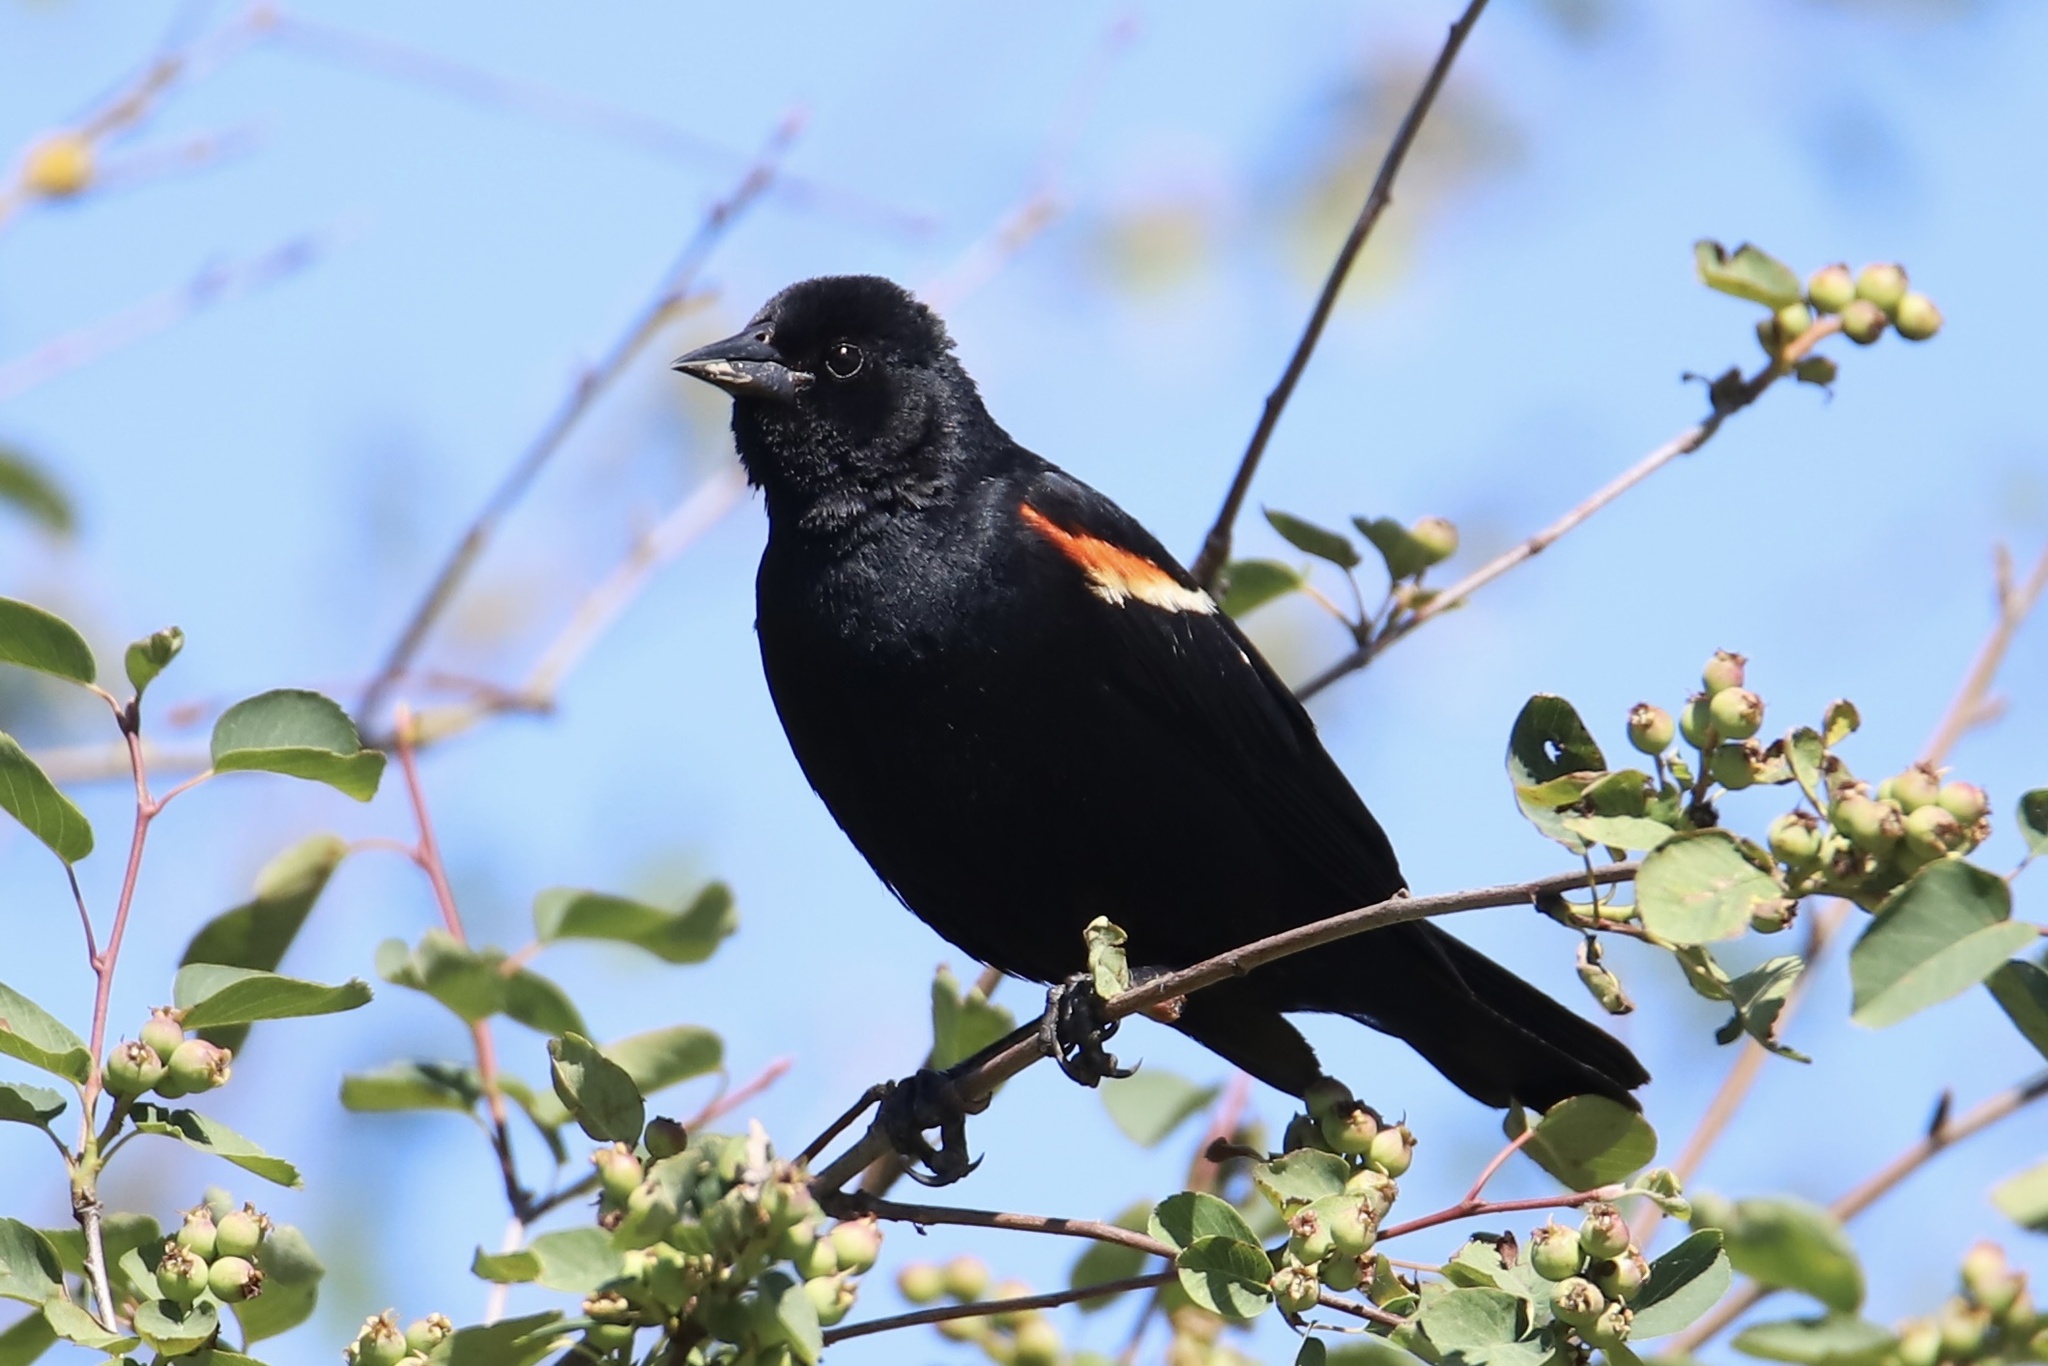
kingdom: Animalia
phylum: Chordata
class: Aves
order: Passeriformes
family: Icteridae
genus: Agelaius
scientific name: Agelaius phoeniceus
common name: Red-winged blackbird
